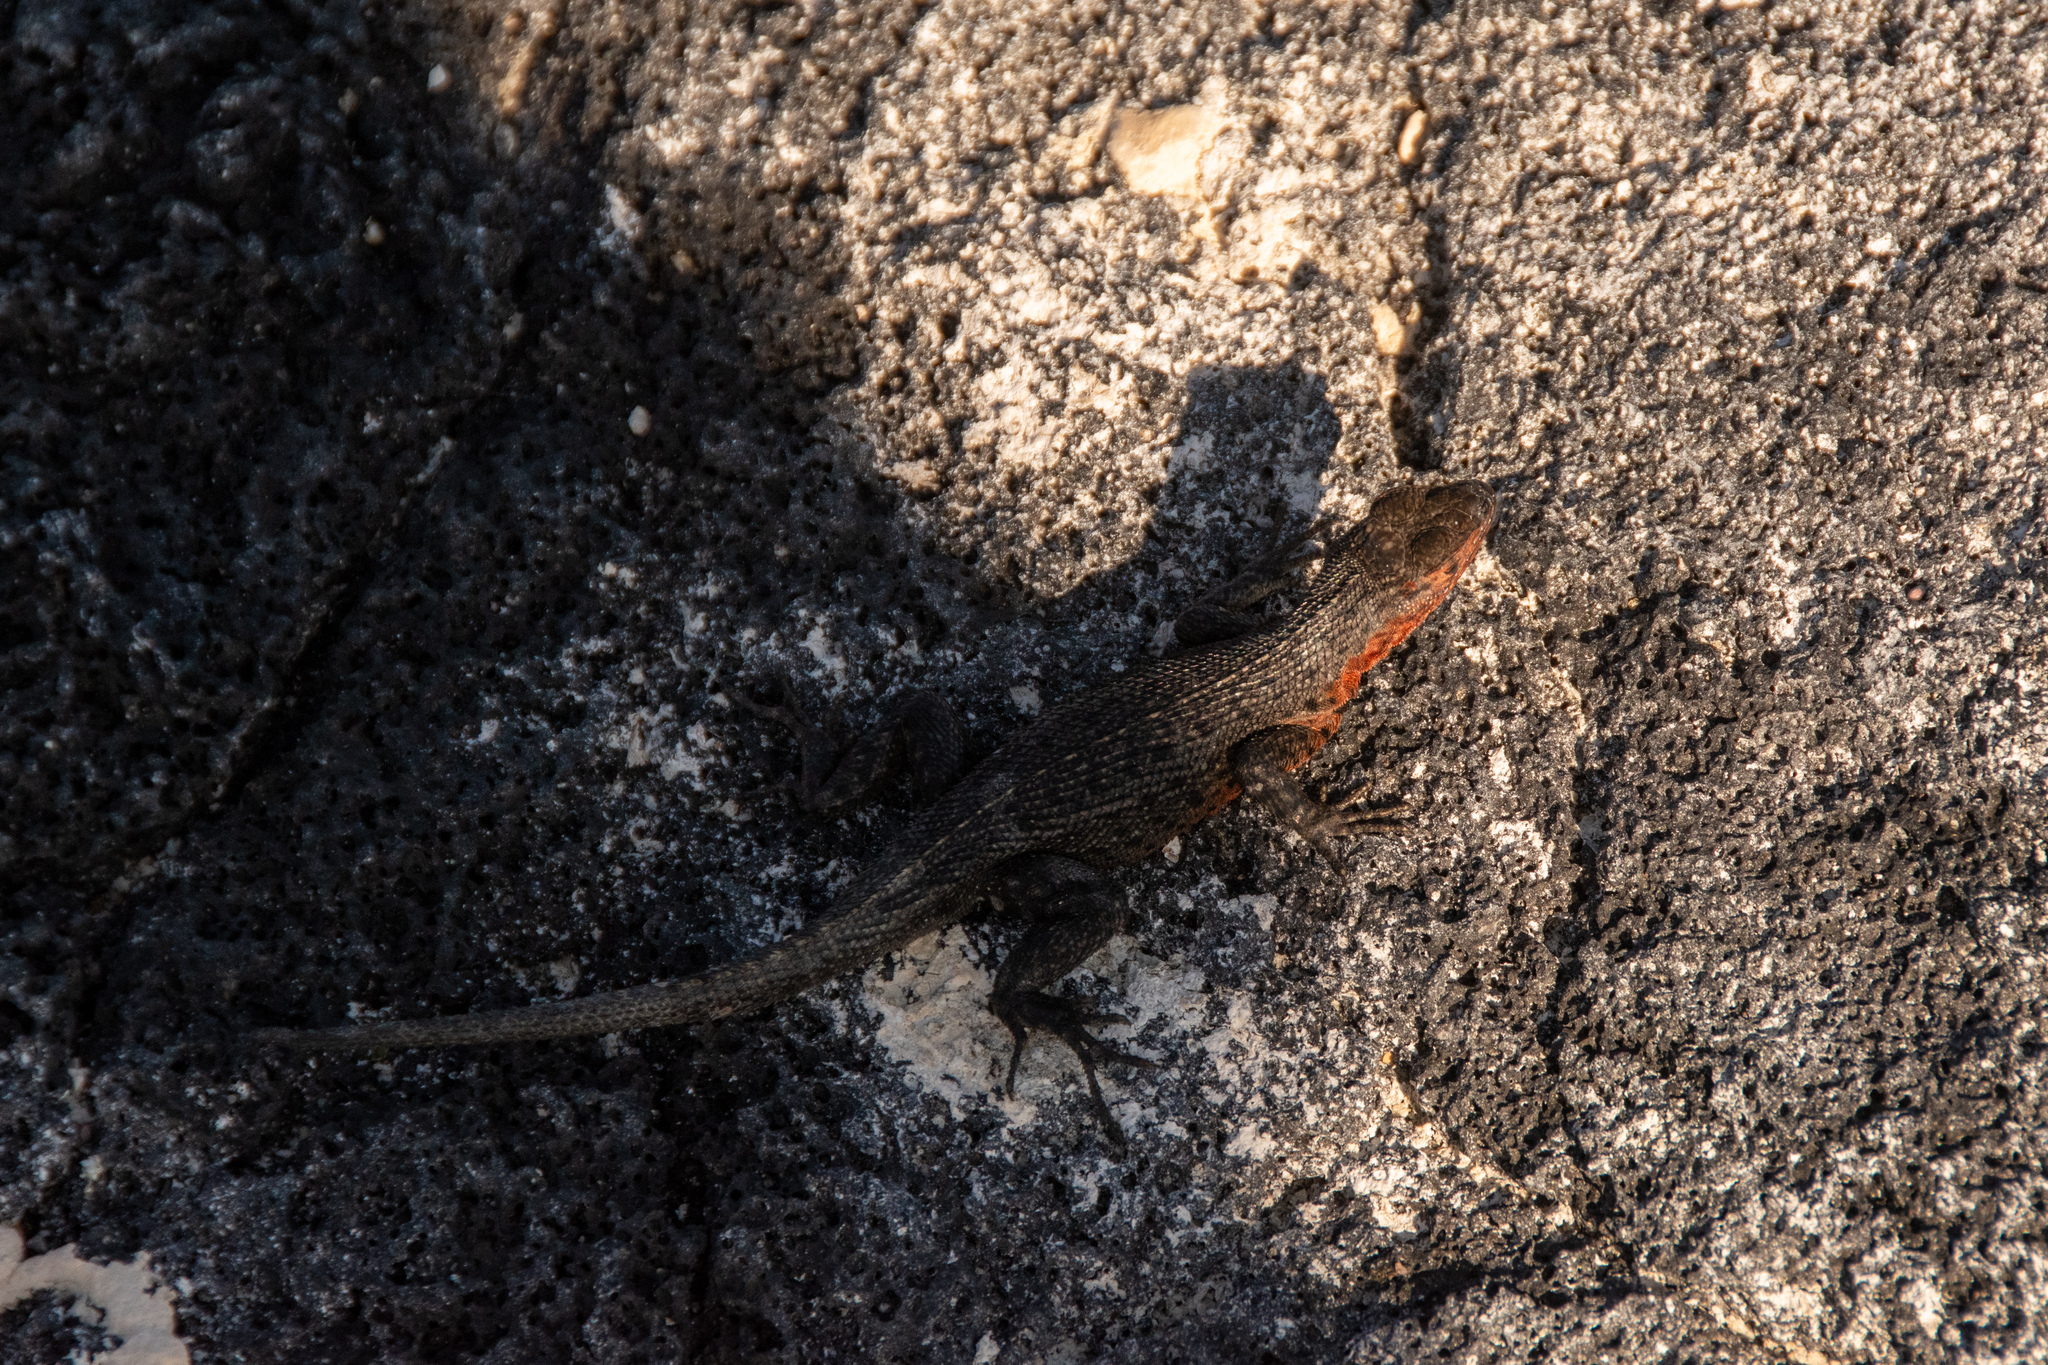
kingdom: Animalia
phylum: Chordata
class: Squamata
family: Tropiduridae
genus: Microlophus
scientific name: Microlophus albemarlensis
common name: Galapagos lava lizard
